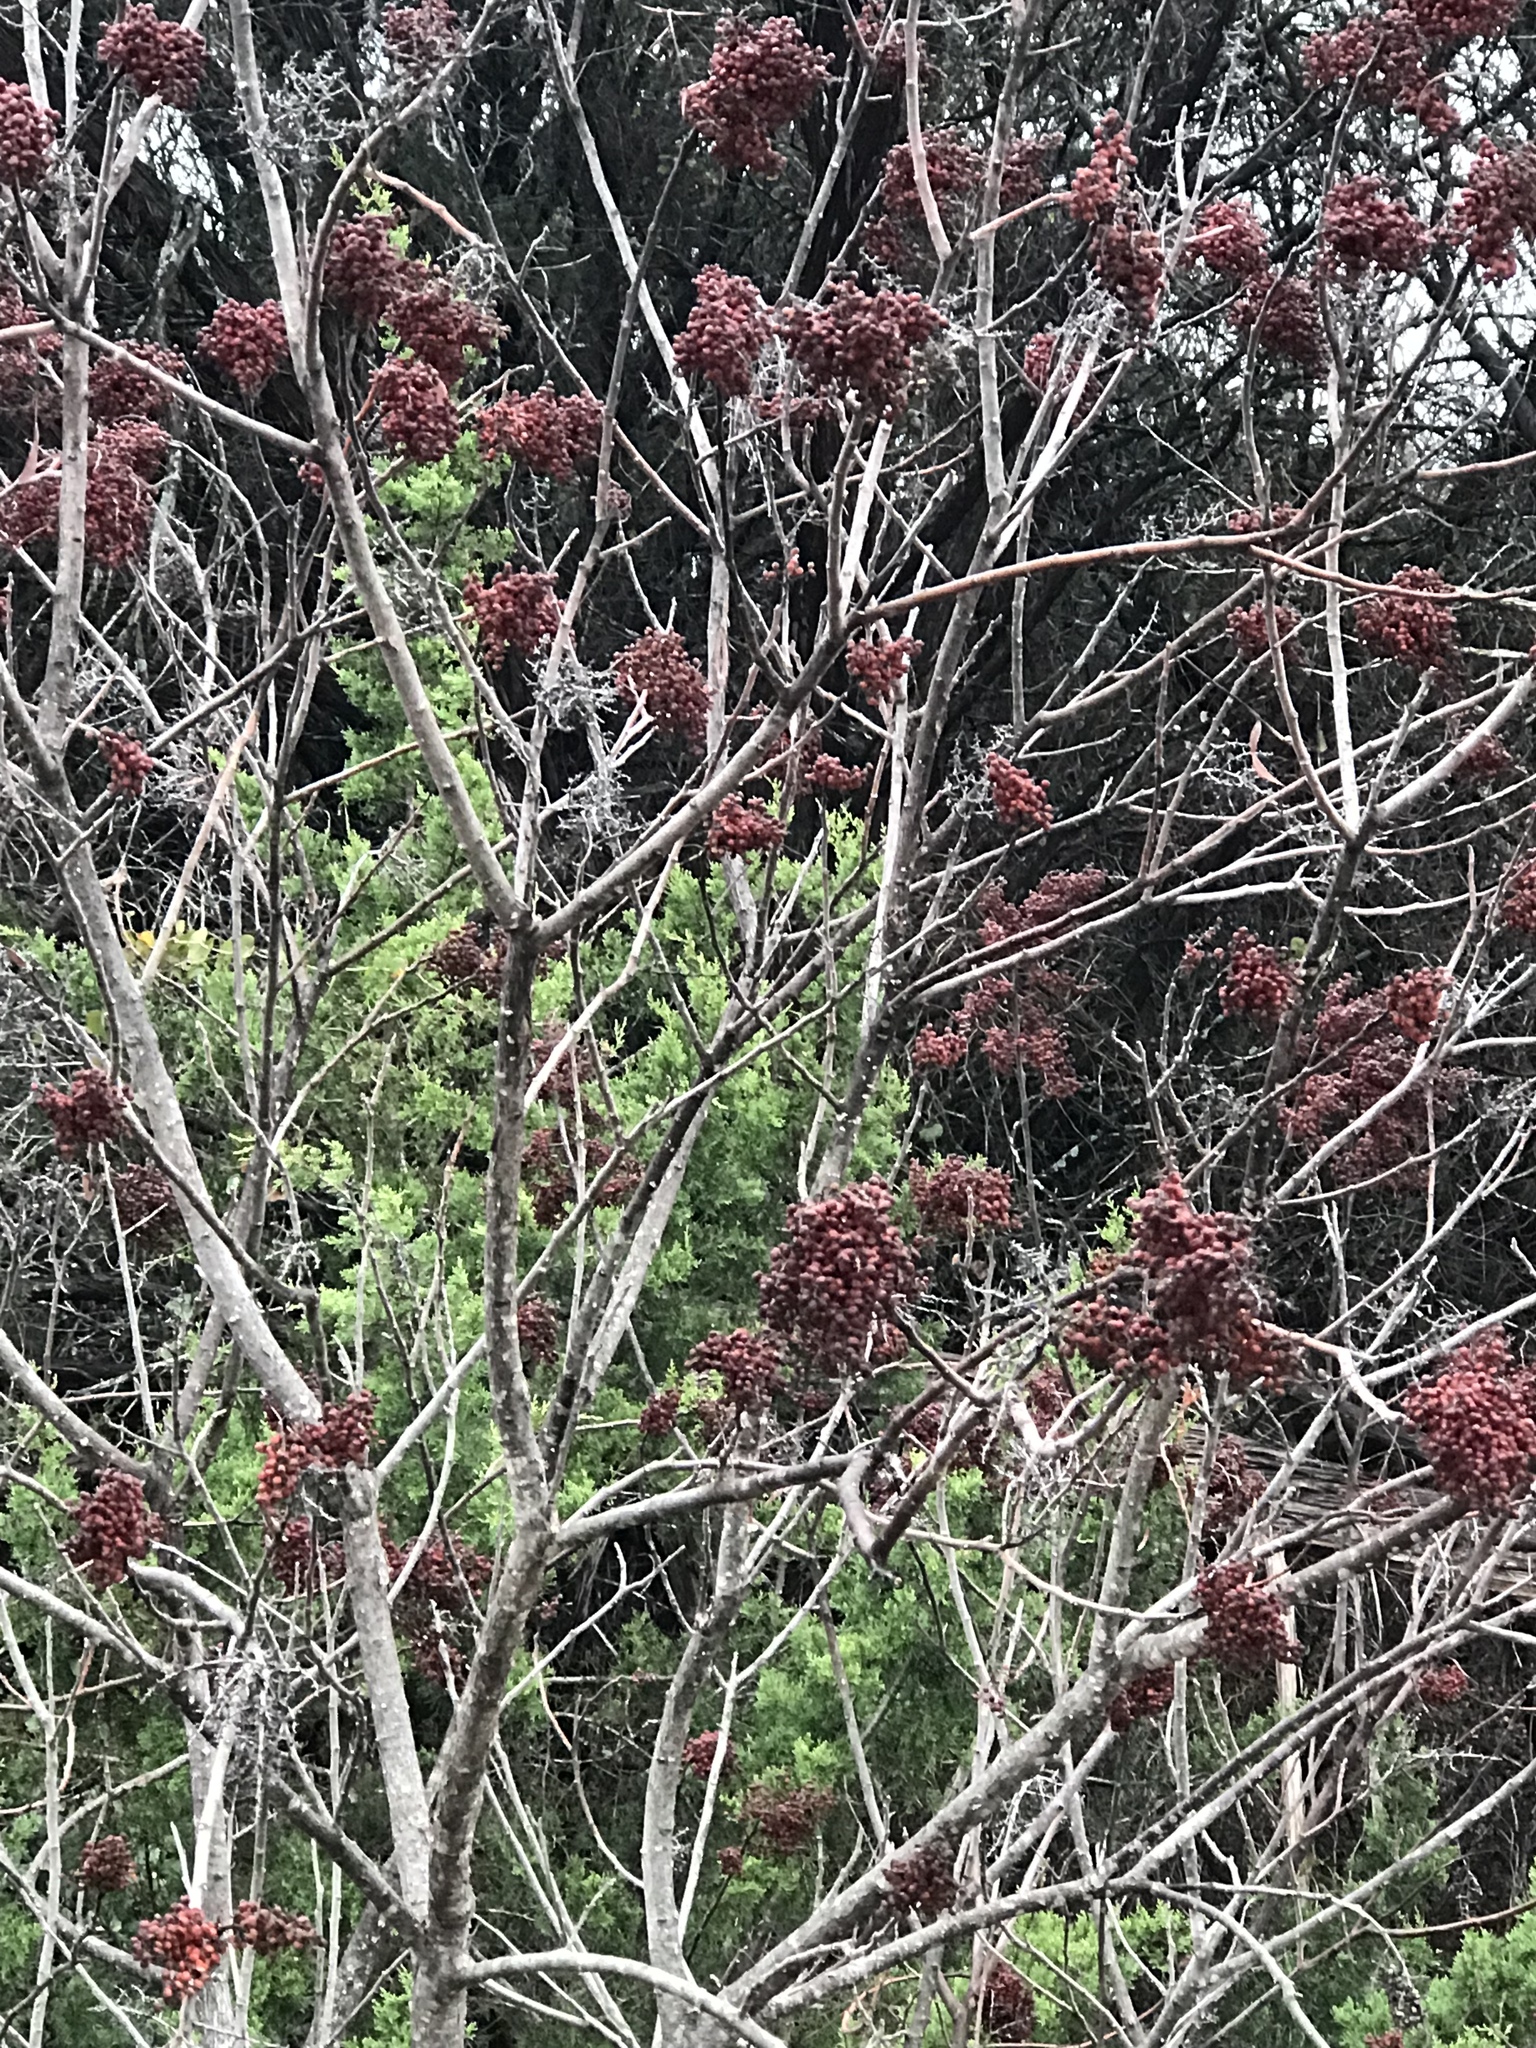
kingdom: Plantae
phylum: Tracheophyta
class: Magnoliopsida
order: Sapindales
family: Anacardiaceae
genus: Rhus
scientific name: Rhus lanceolata
